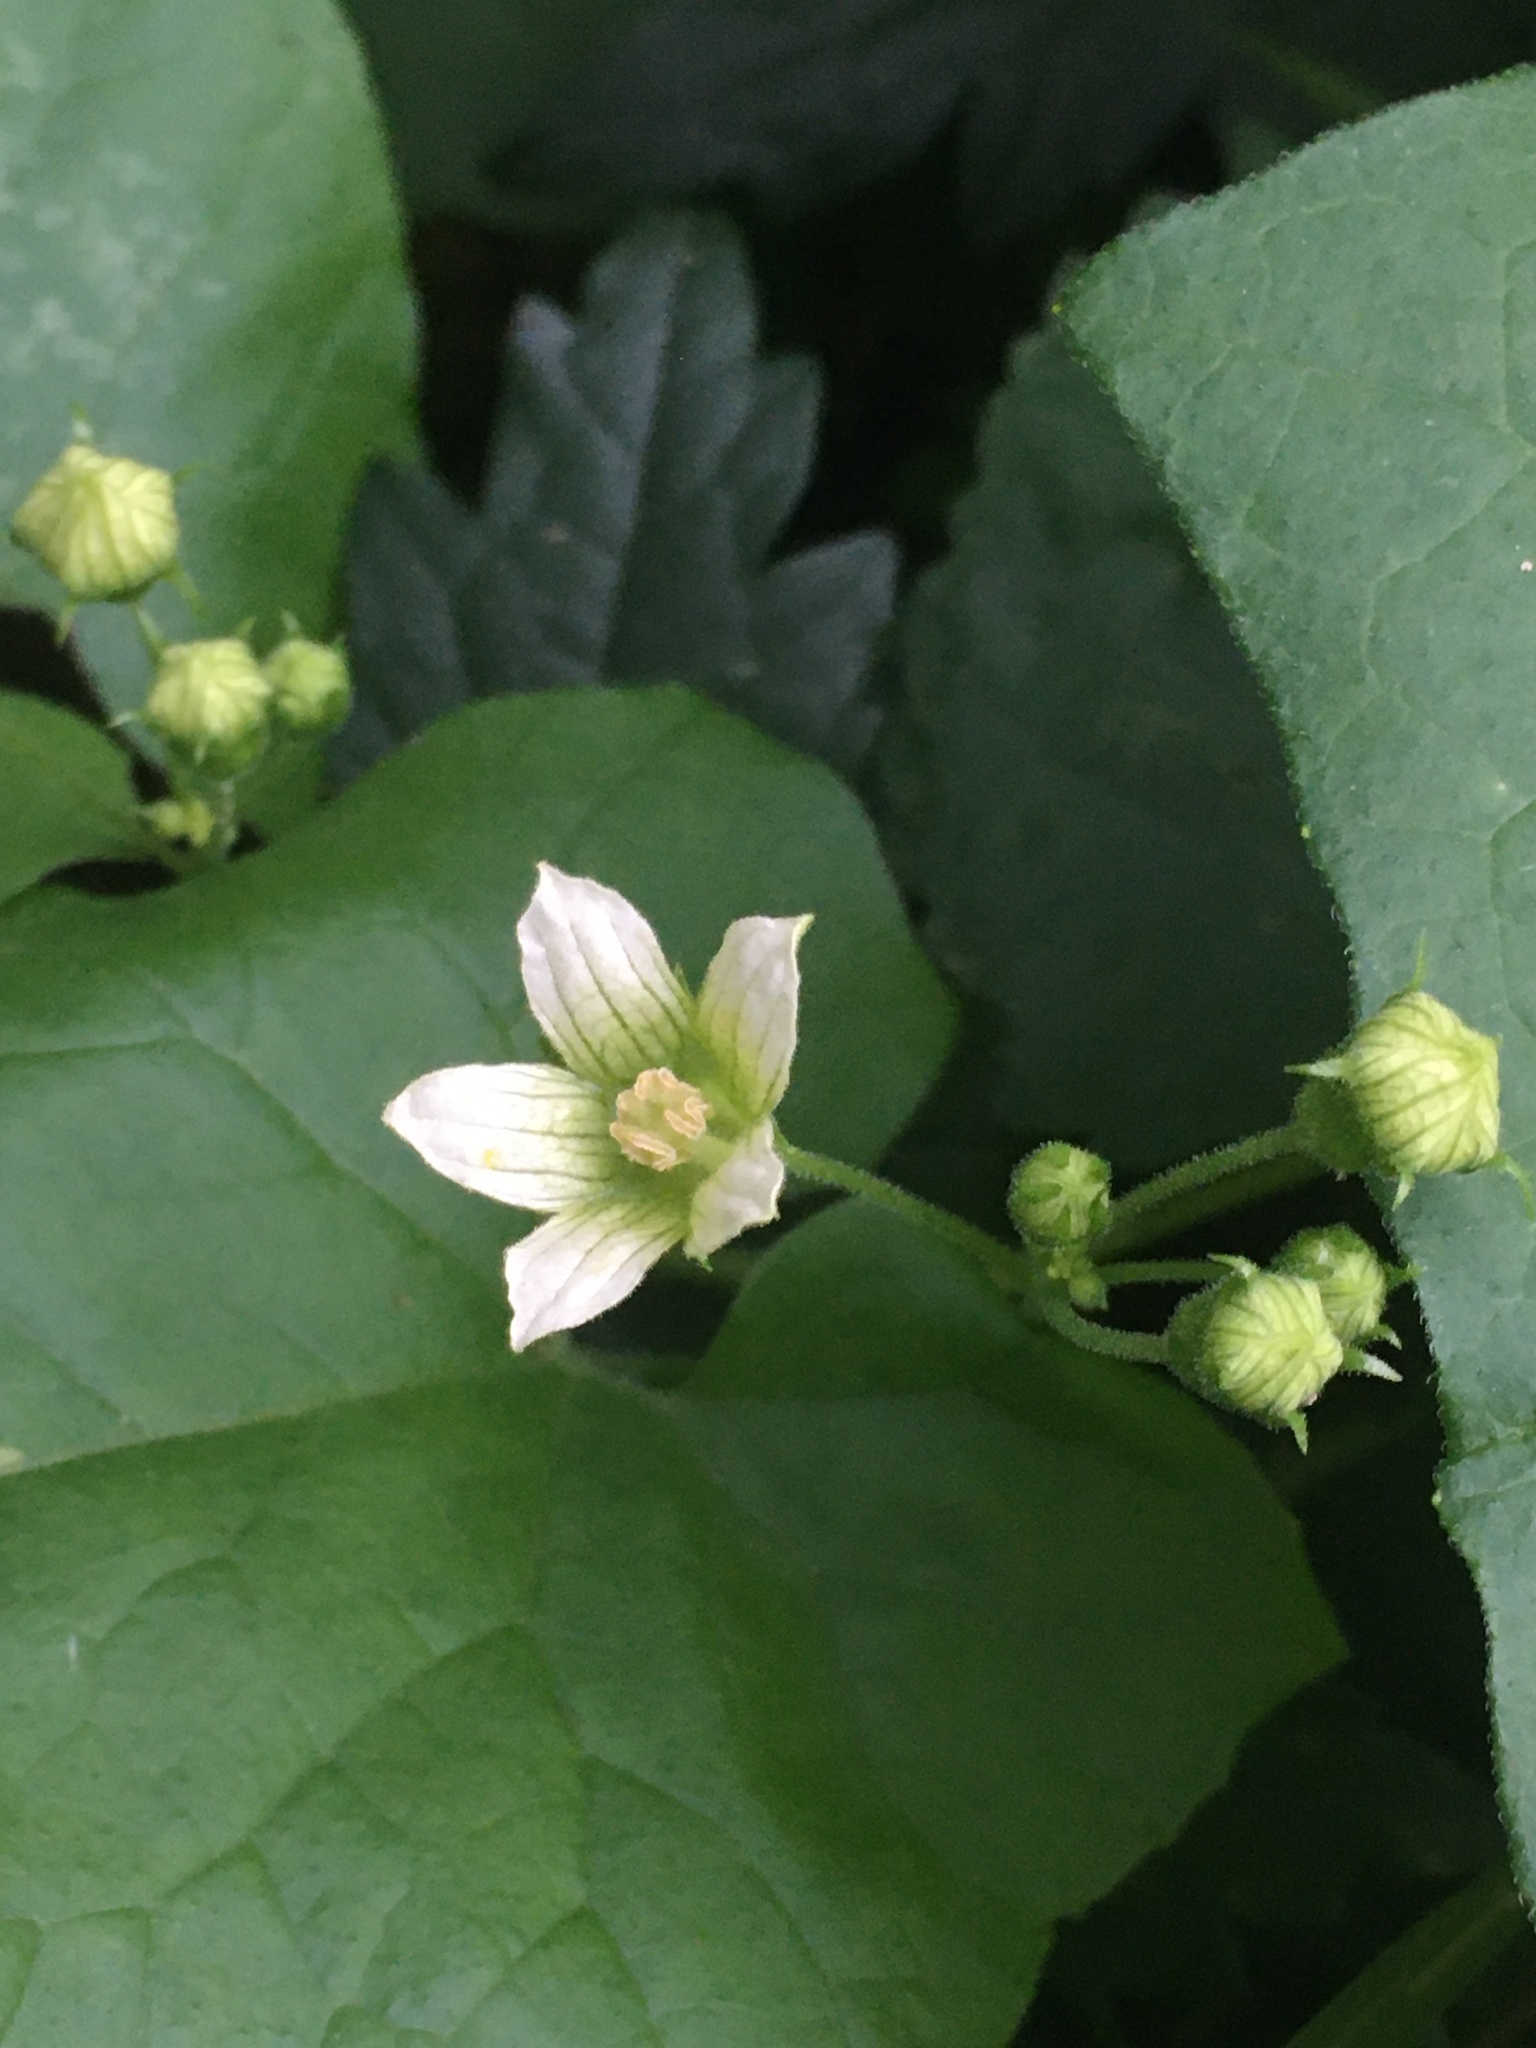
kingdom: Plantae
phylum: Tracheophyta
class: Magnoliopsida
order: Cucurbitales
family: Cucurbitaceae
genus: Bryonia
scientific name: Bryonia dioica
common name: White bryony
